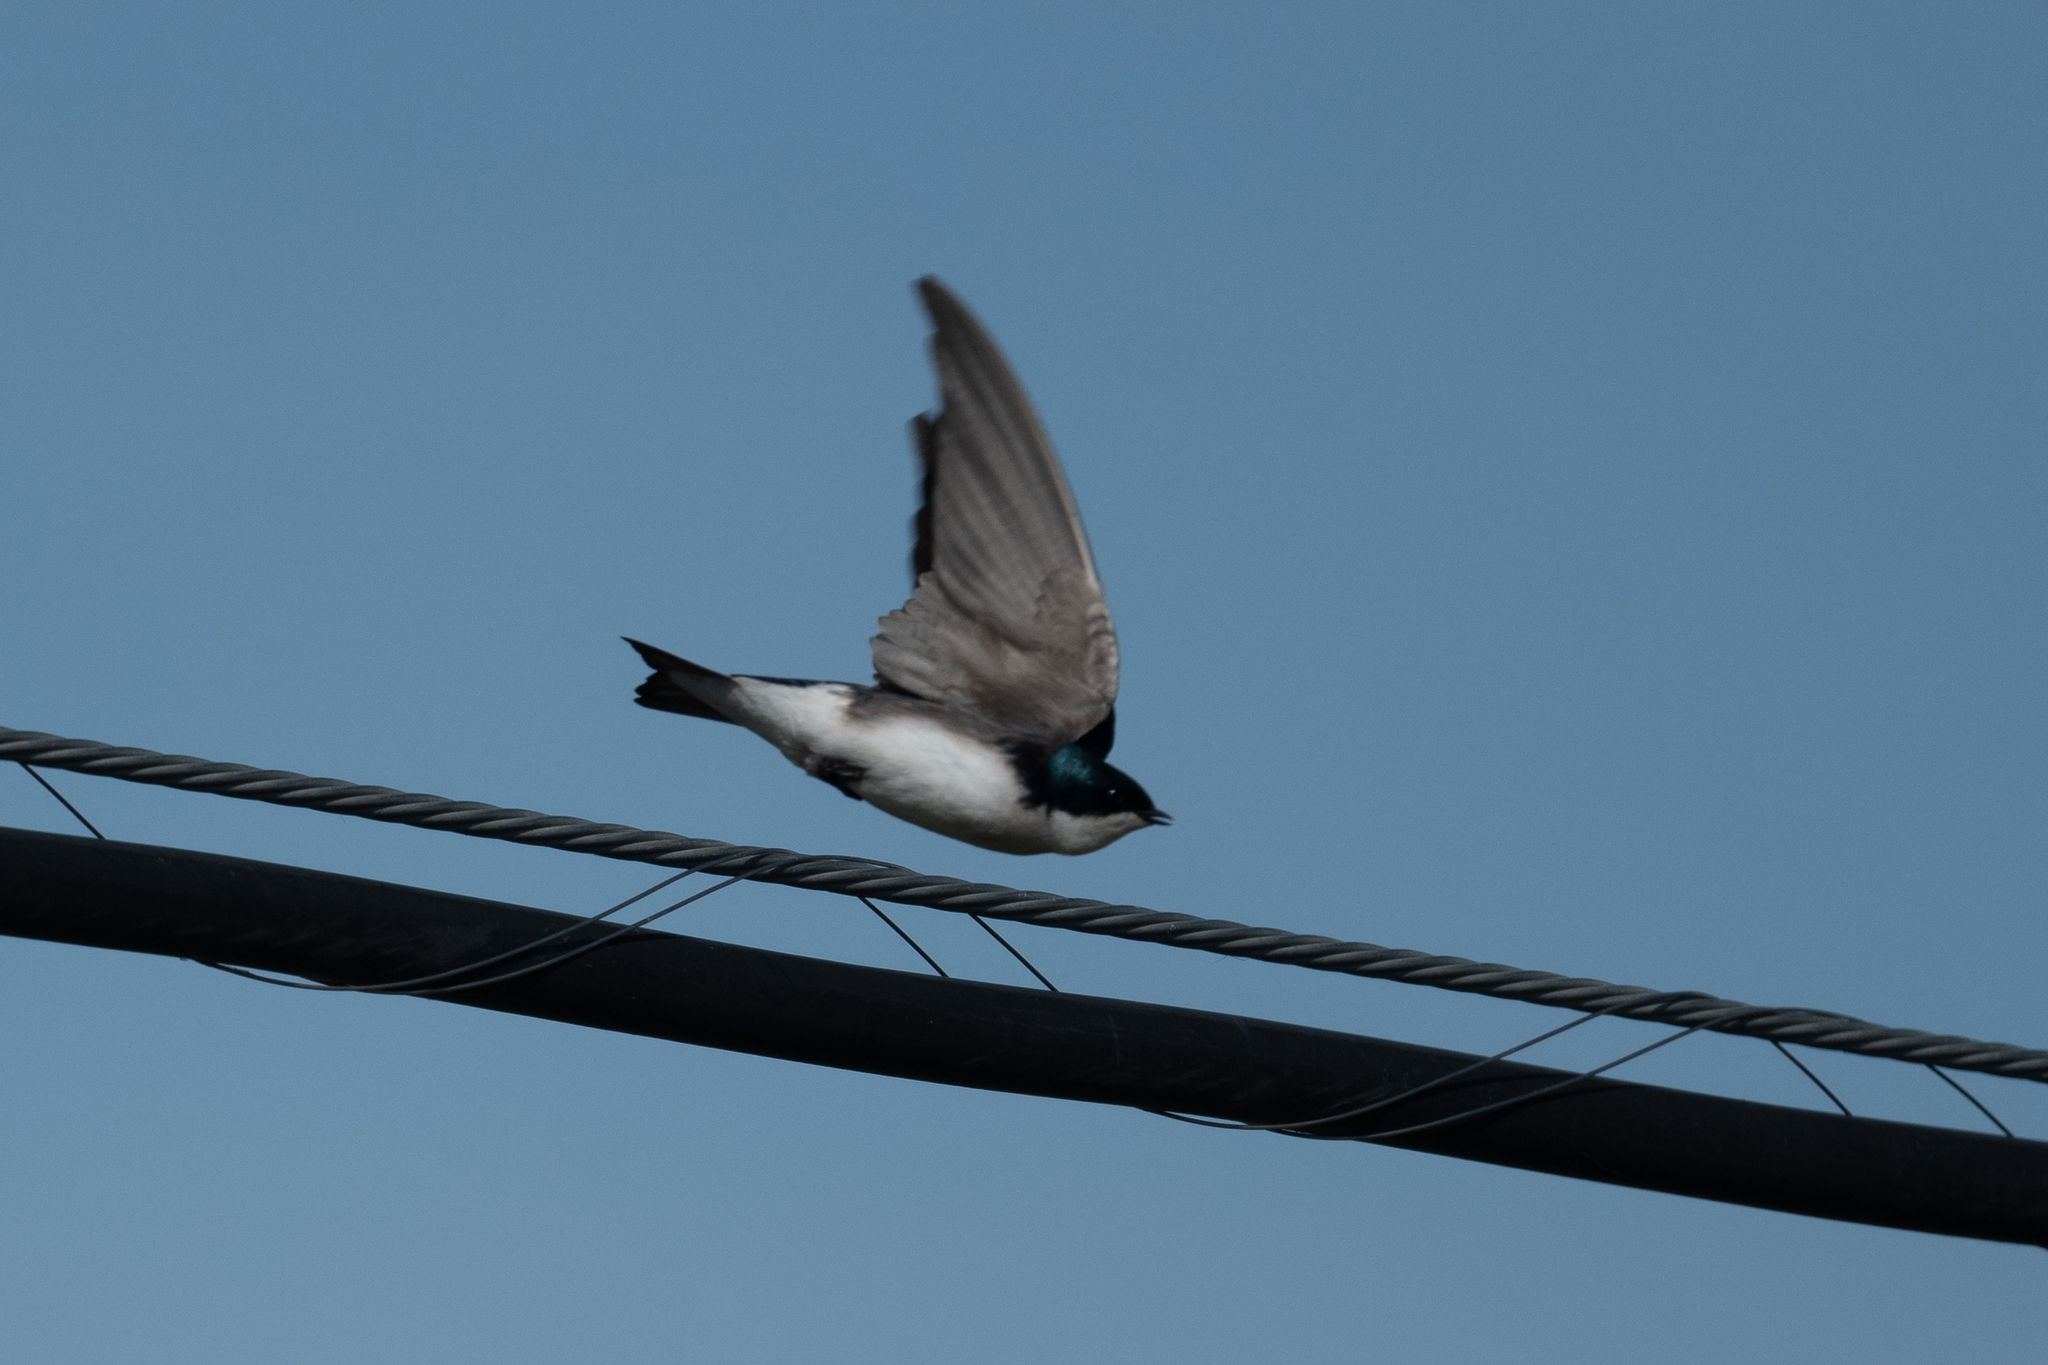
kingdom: Animalia
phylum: Chordata
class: Aves
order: Passeriformes
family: Hirundinidae
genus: Tachycineta
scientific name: Tachycineta bicolor
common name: Tree swallow
